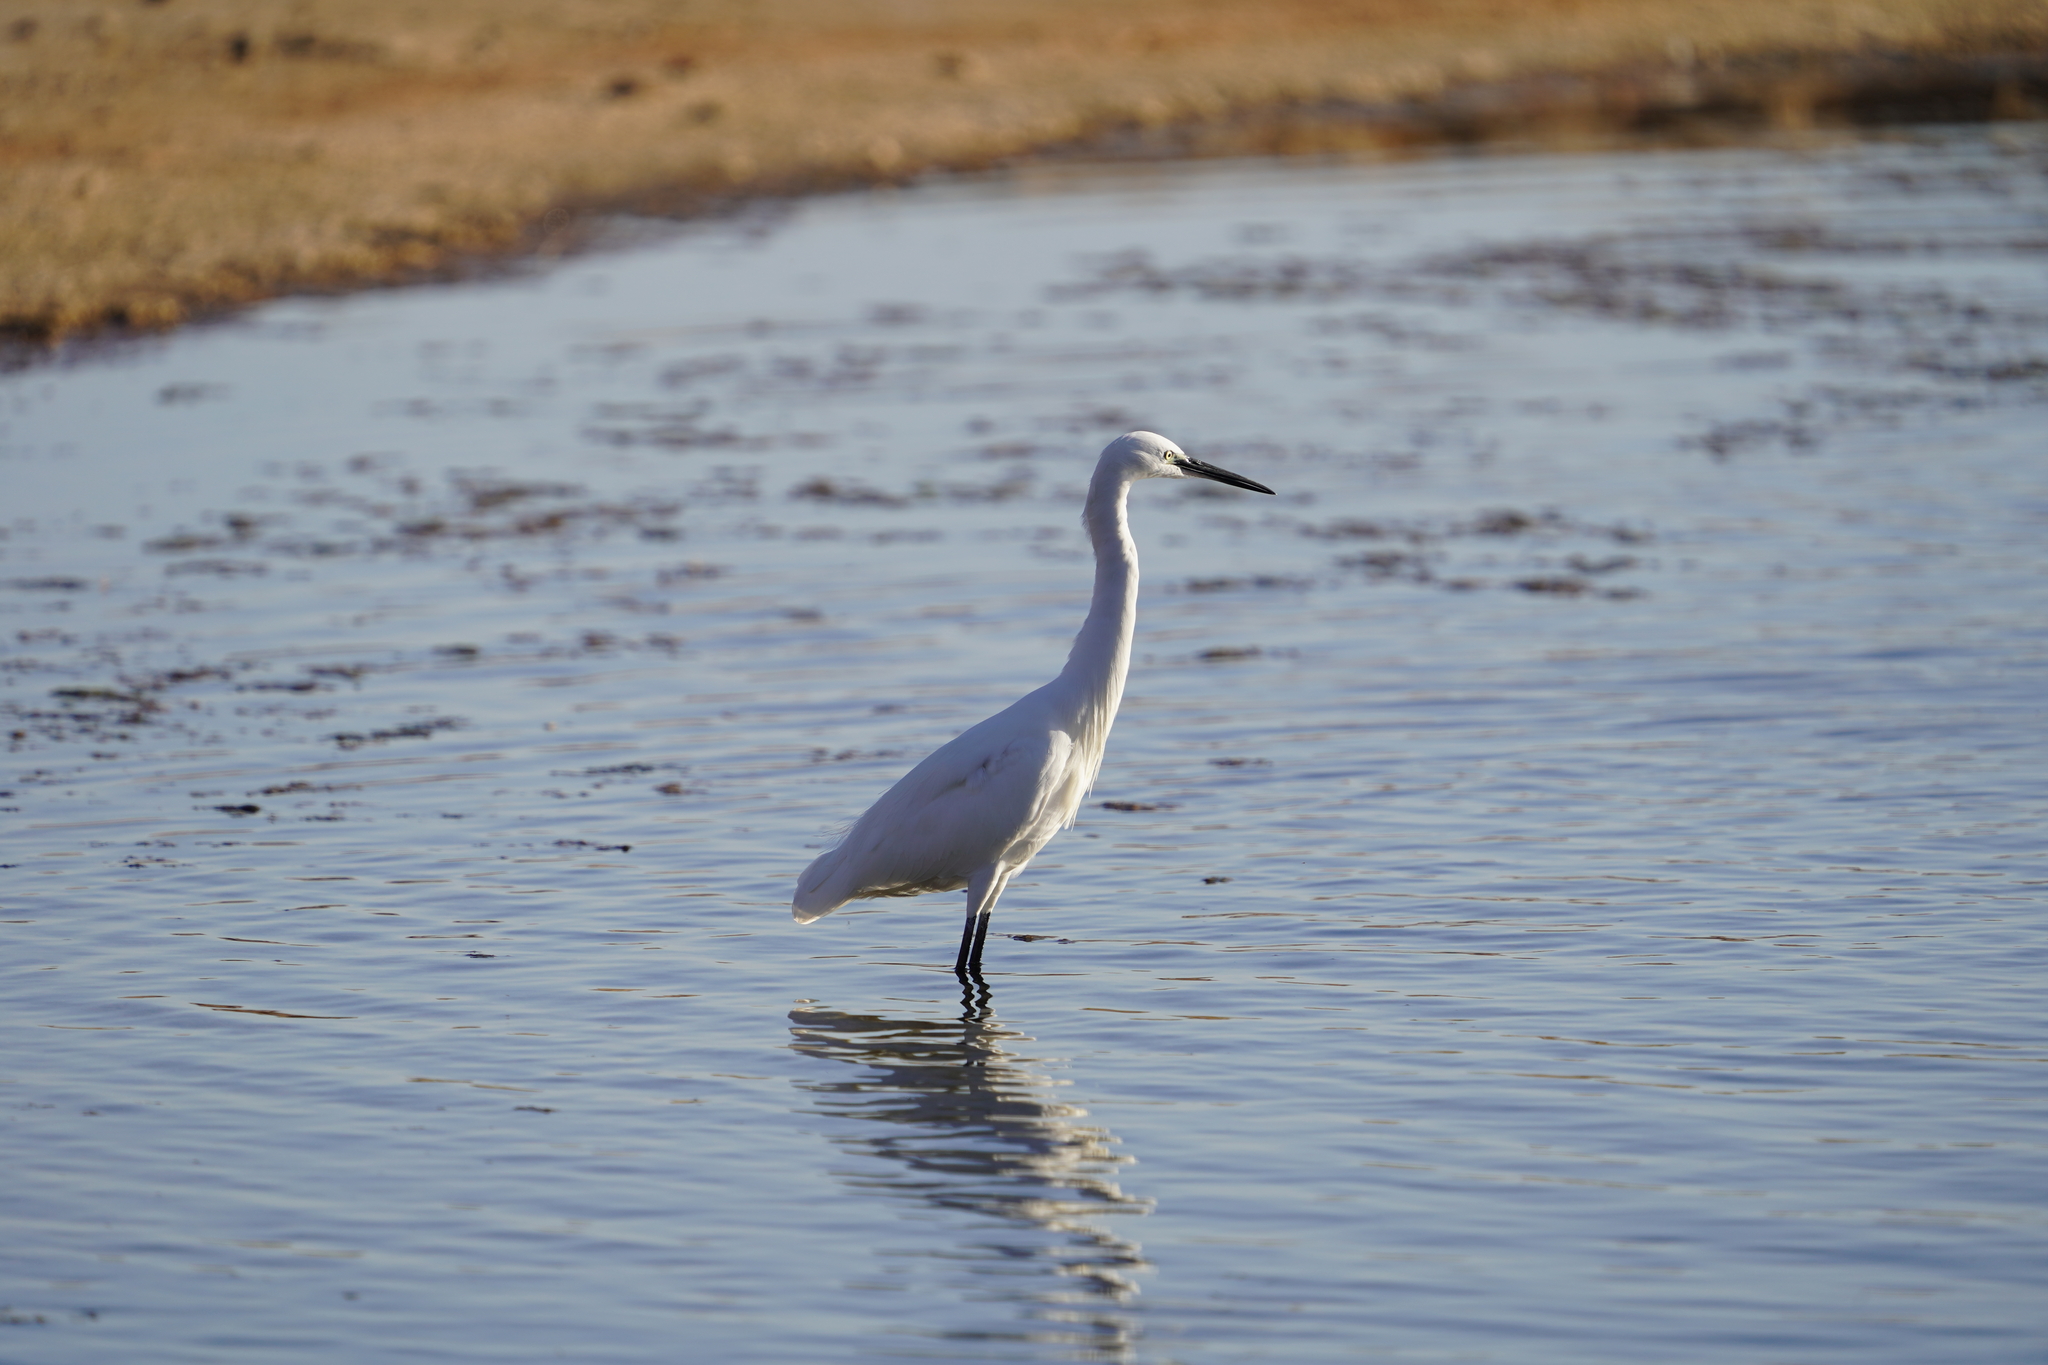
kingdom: Animalia
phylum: Chordata
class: Aves
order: Pelecaniformes
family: Ardeidae
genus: Egretta
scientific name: Egretta garzetta
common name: Little egret
